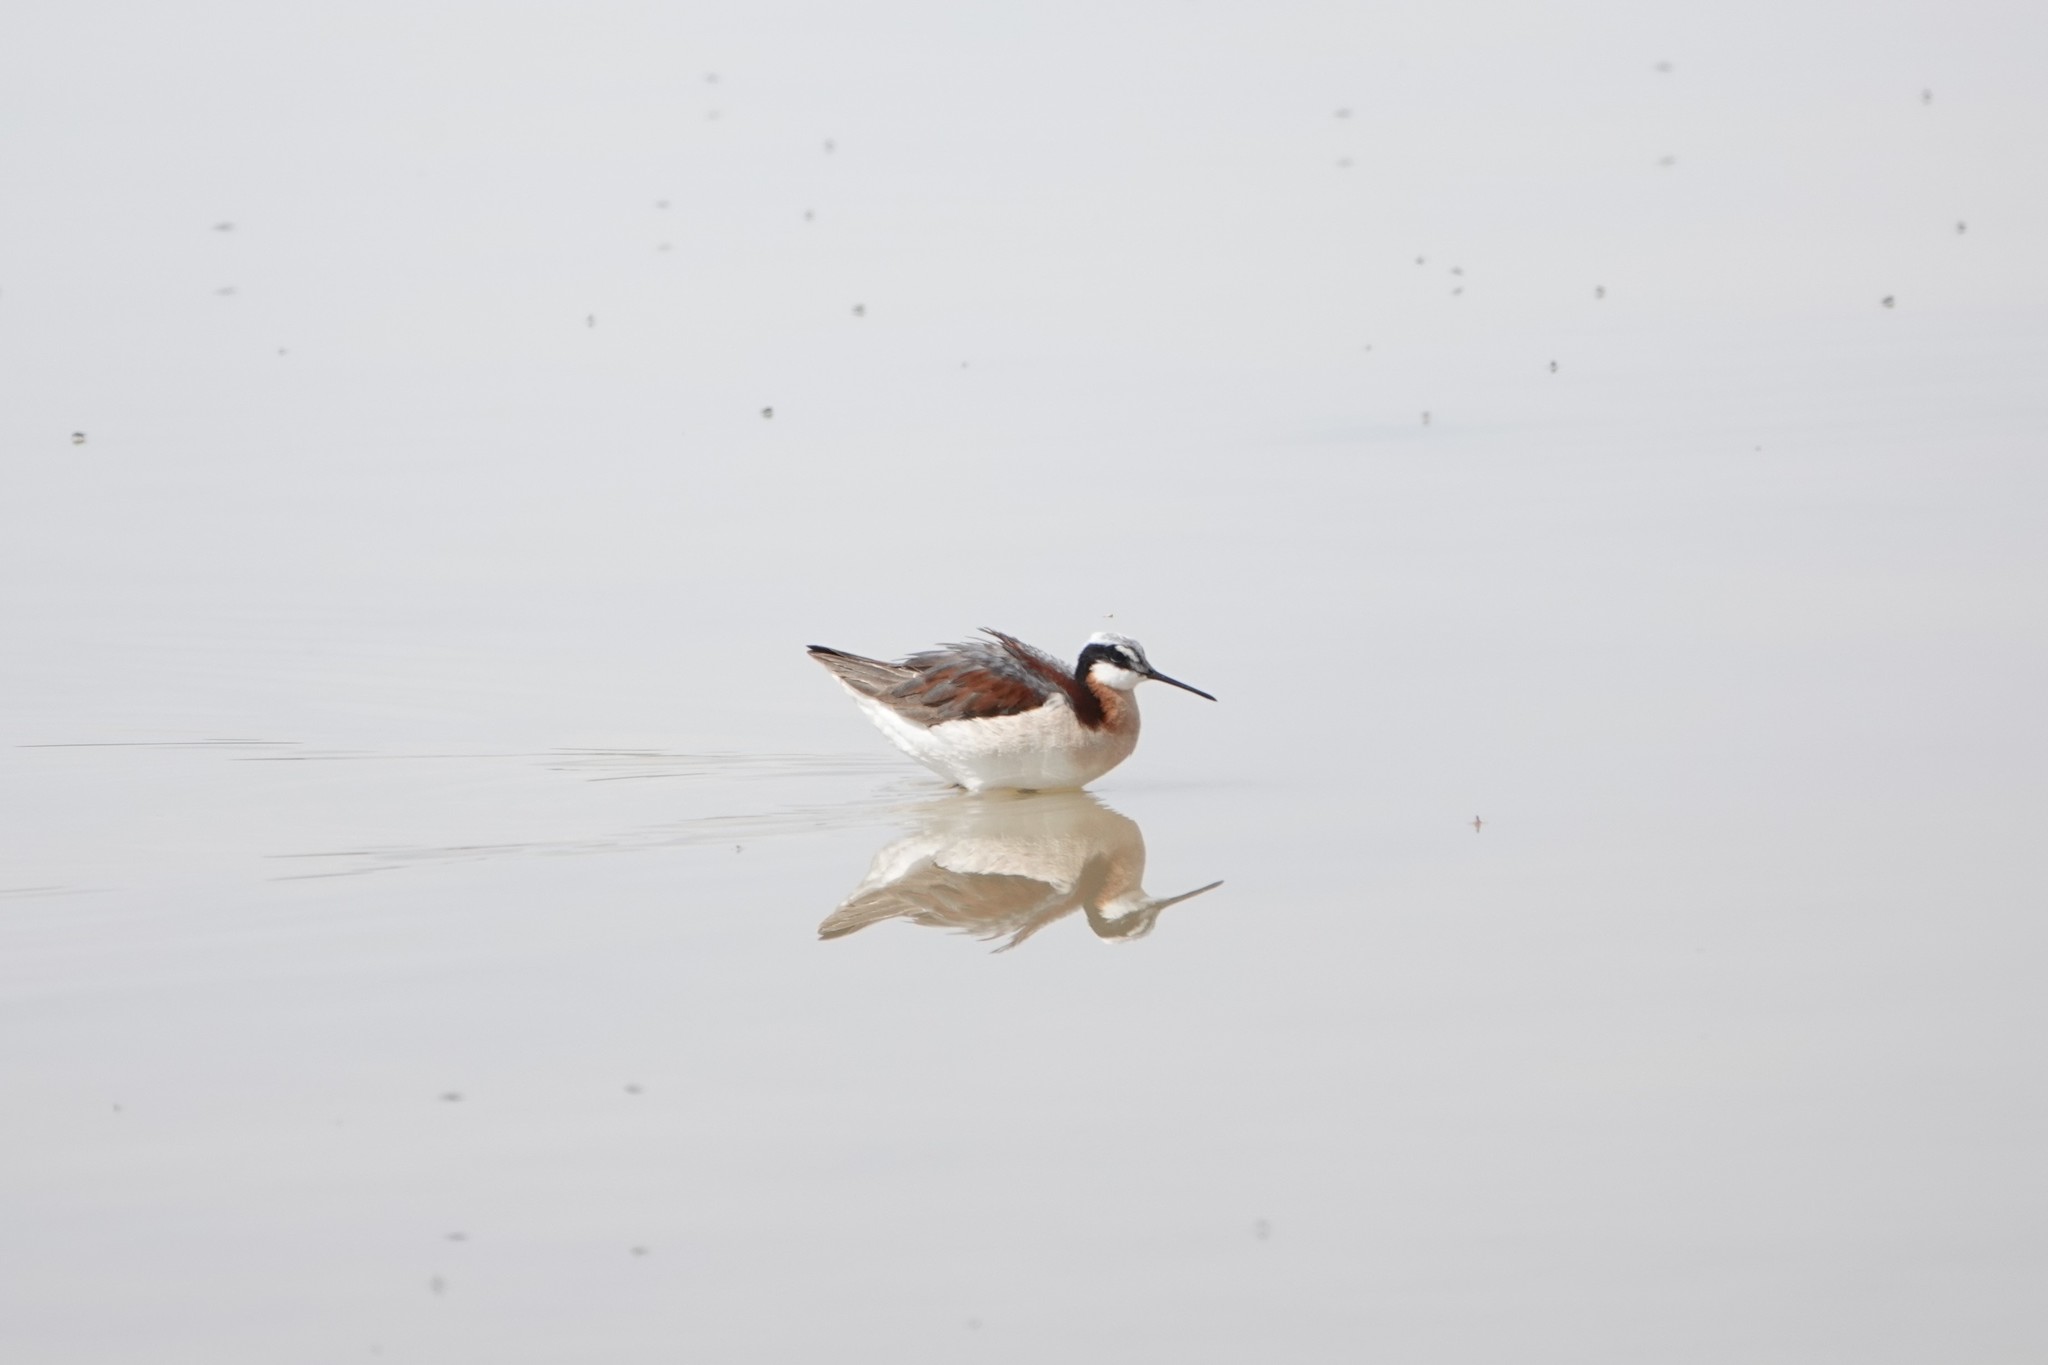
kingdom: Animalia
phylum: Chordata
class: Aves
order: Charadriiformes
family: Scolopacidae
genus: Phalaropus
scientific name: Phalaropus tricolor
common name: Wilson's phalarope
